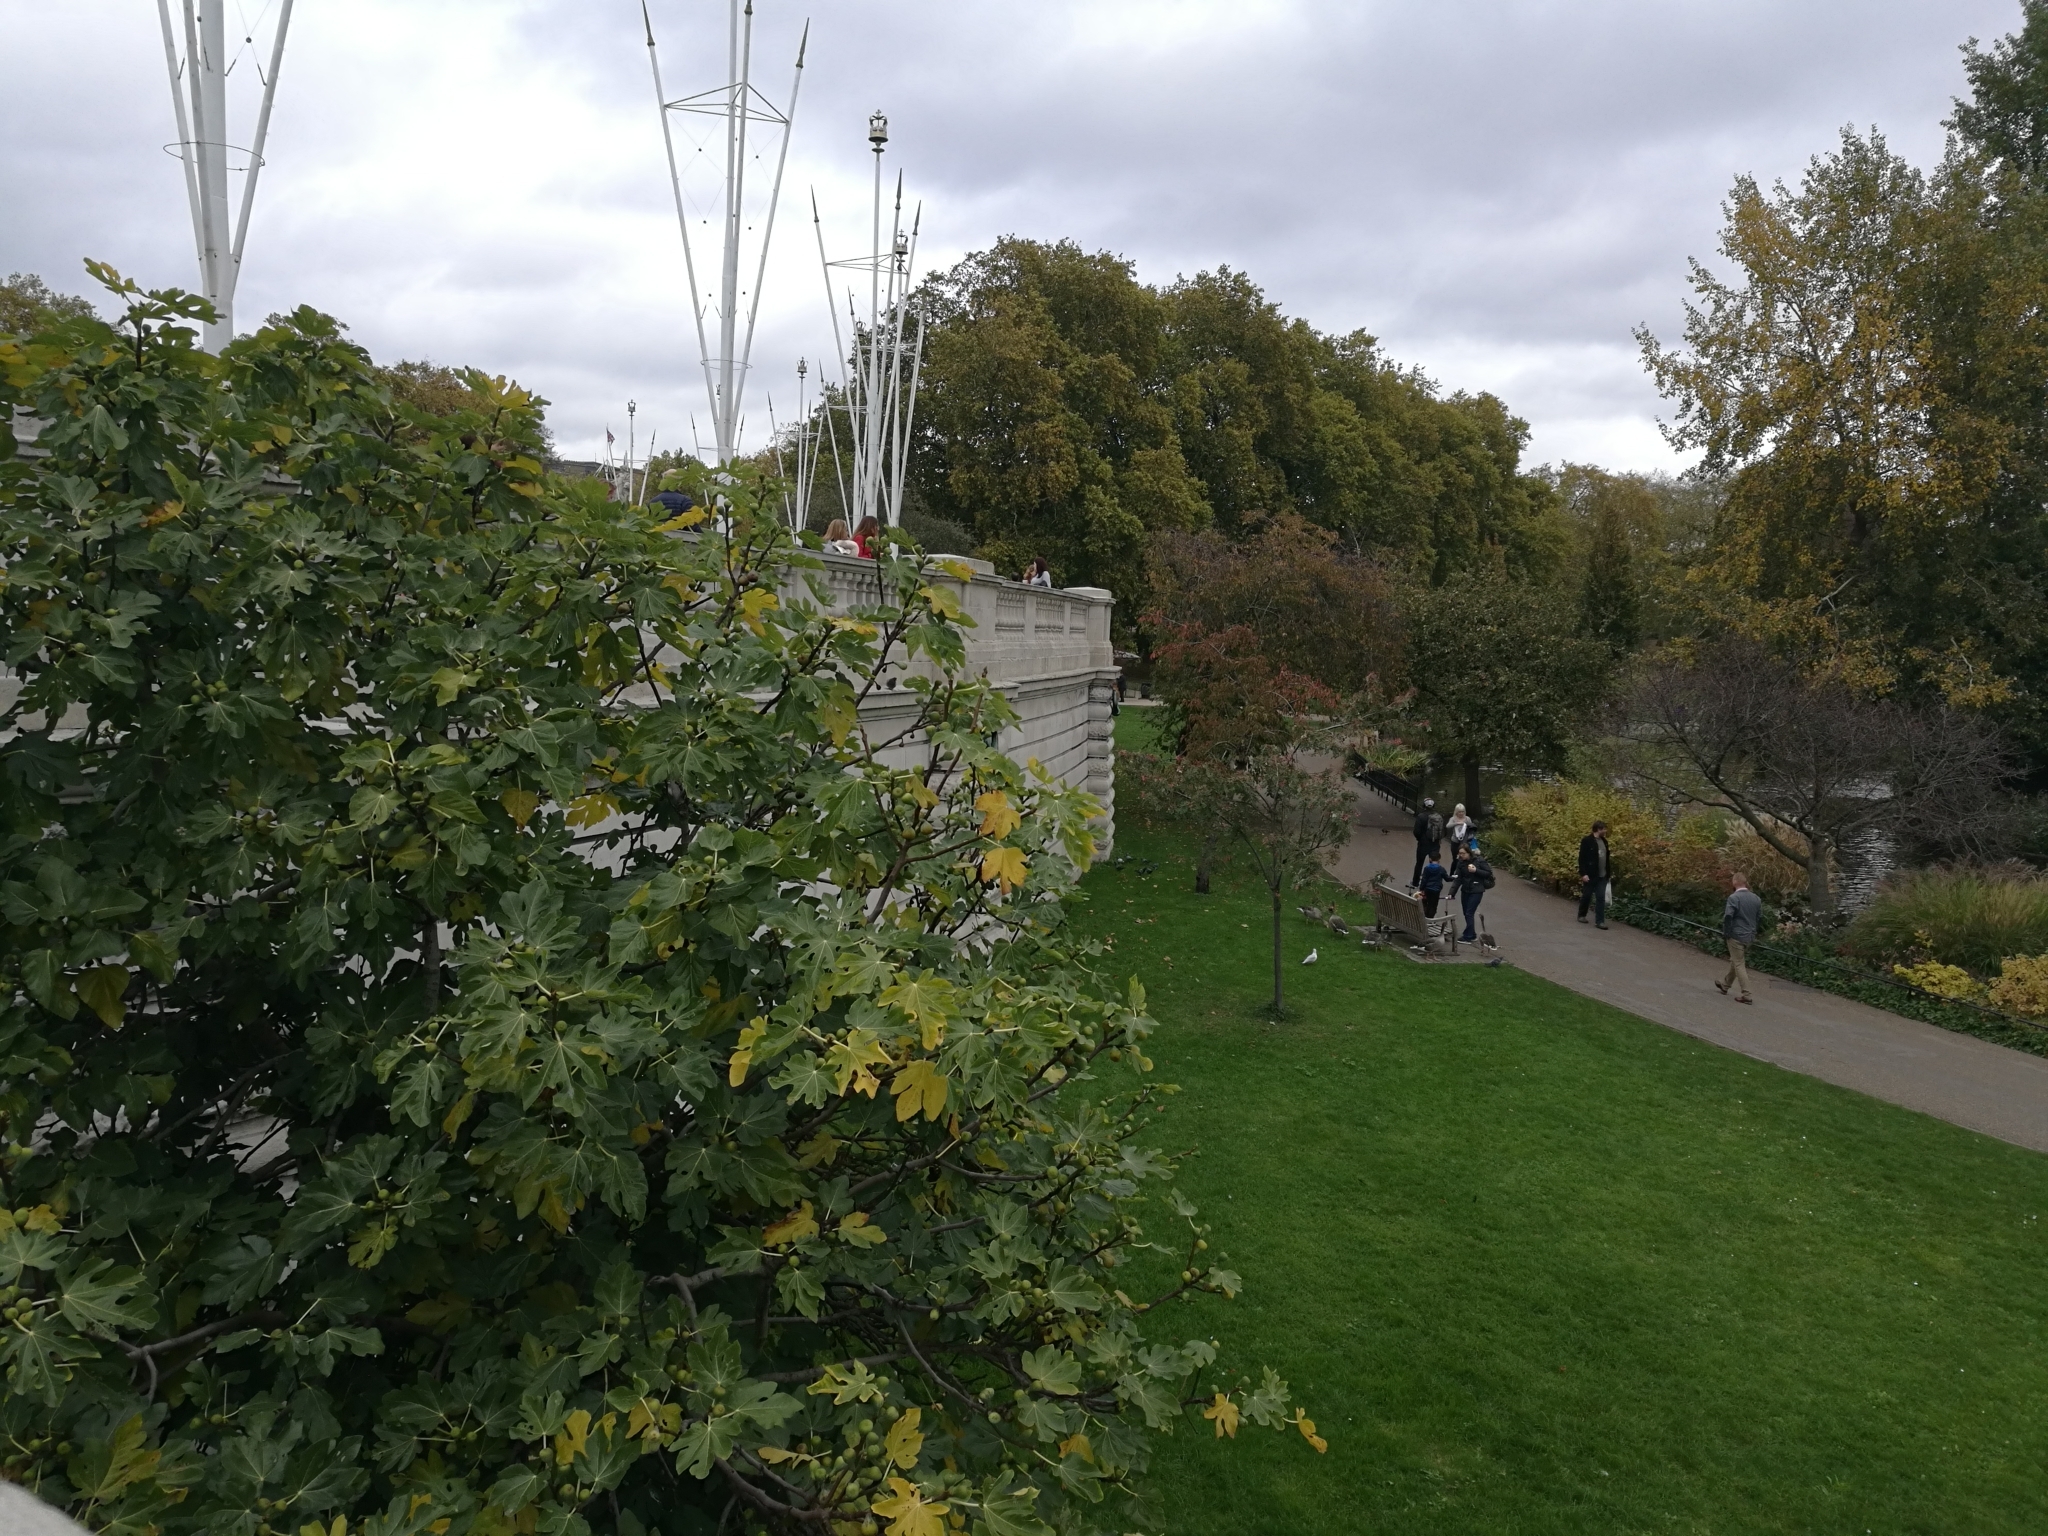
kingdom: Plantae
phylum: Tracheophyta
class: Magnoliopsida
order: Rosales
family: Moraceae
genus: Ficus
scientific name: Ficus carica
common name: Fig
